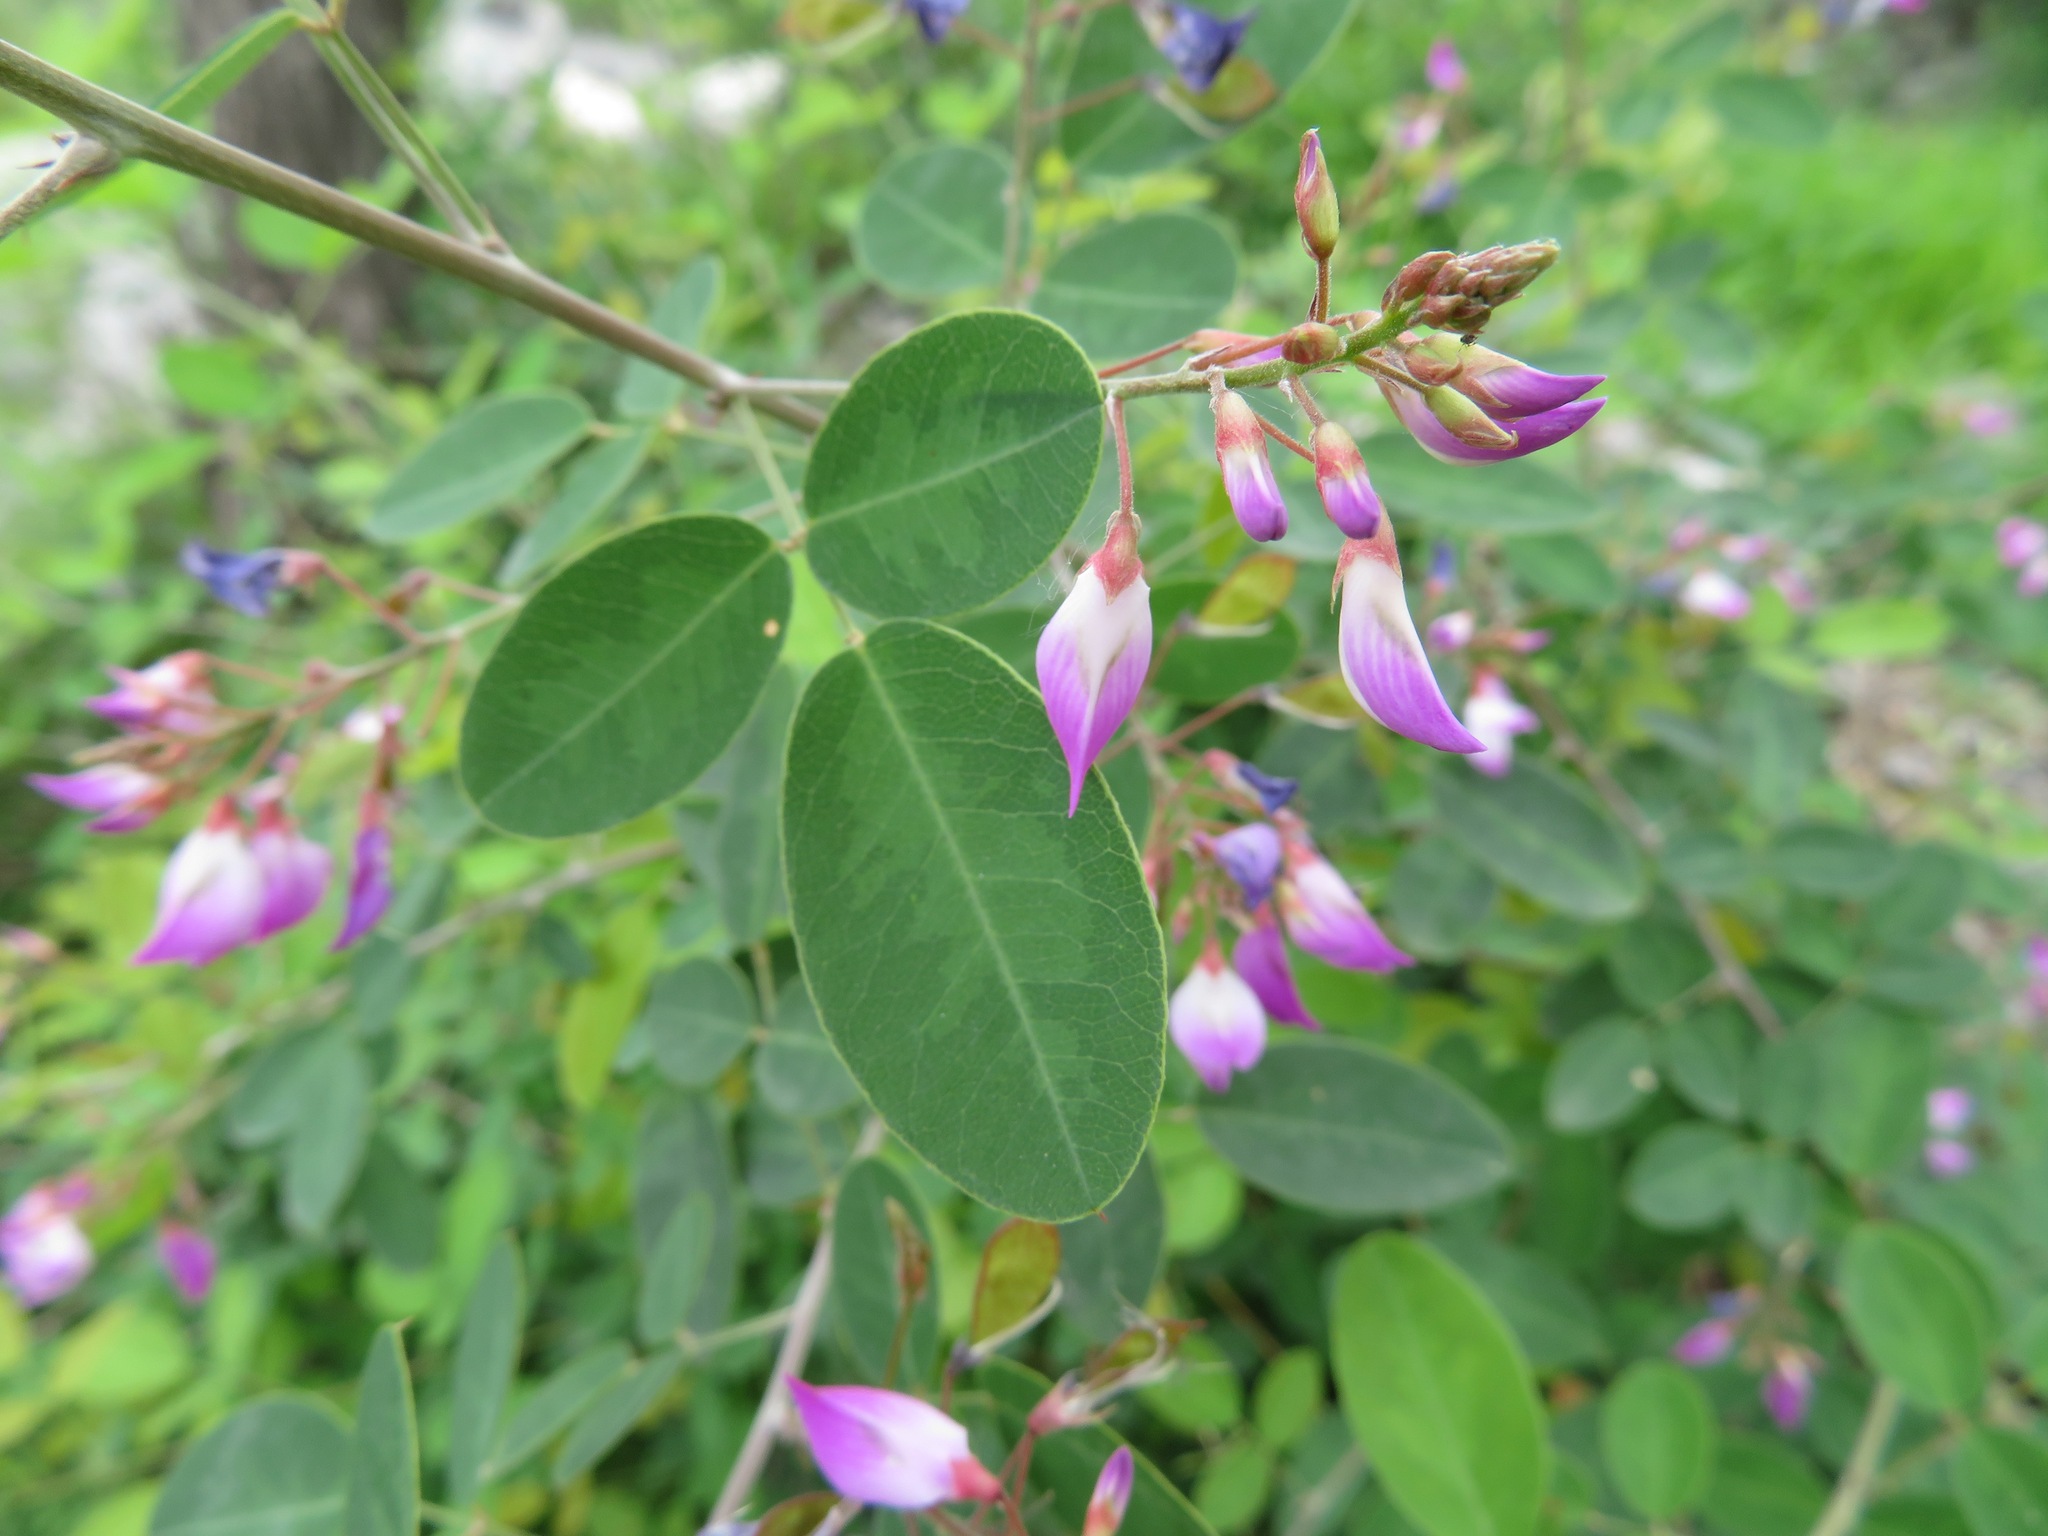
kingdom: Plantae
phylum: Tracheophyta
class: Magnoliopsida
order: Fabales
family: Fabaceae
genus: Campylotropis
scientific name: Campylotropis macrocarpa
